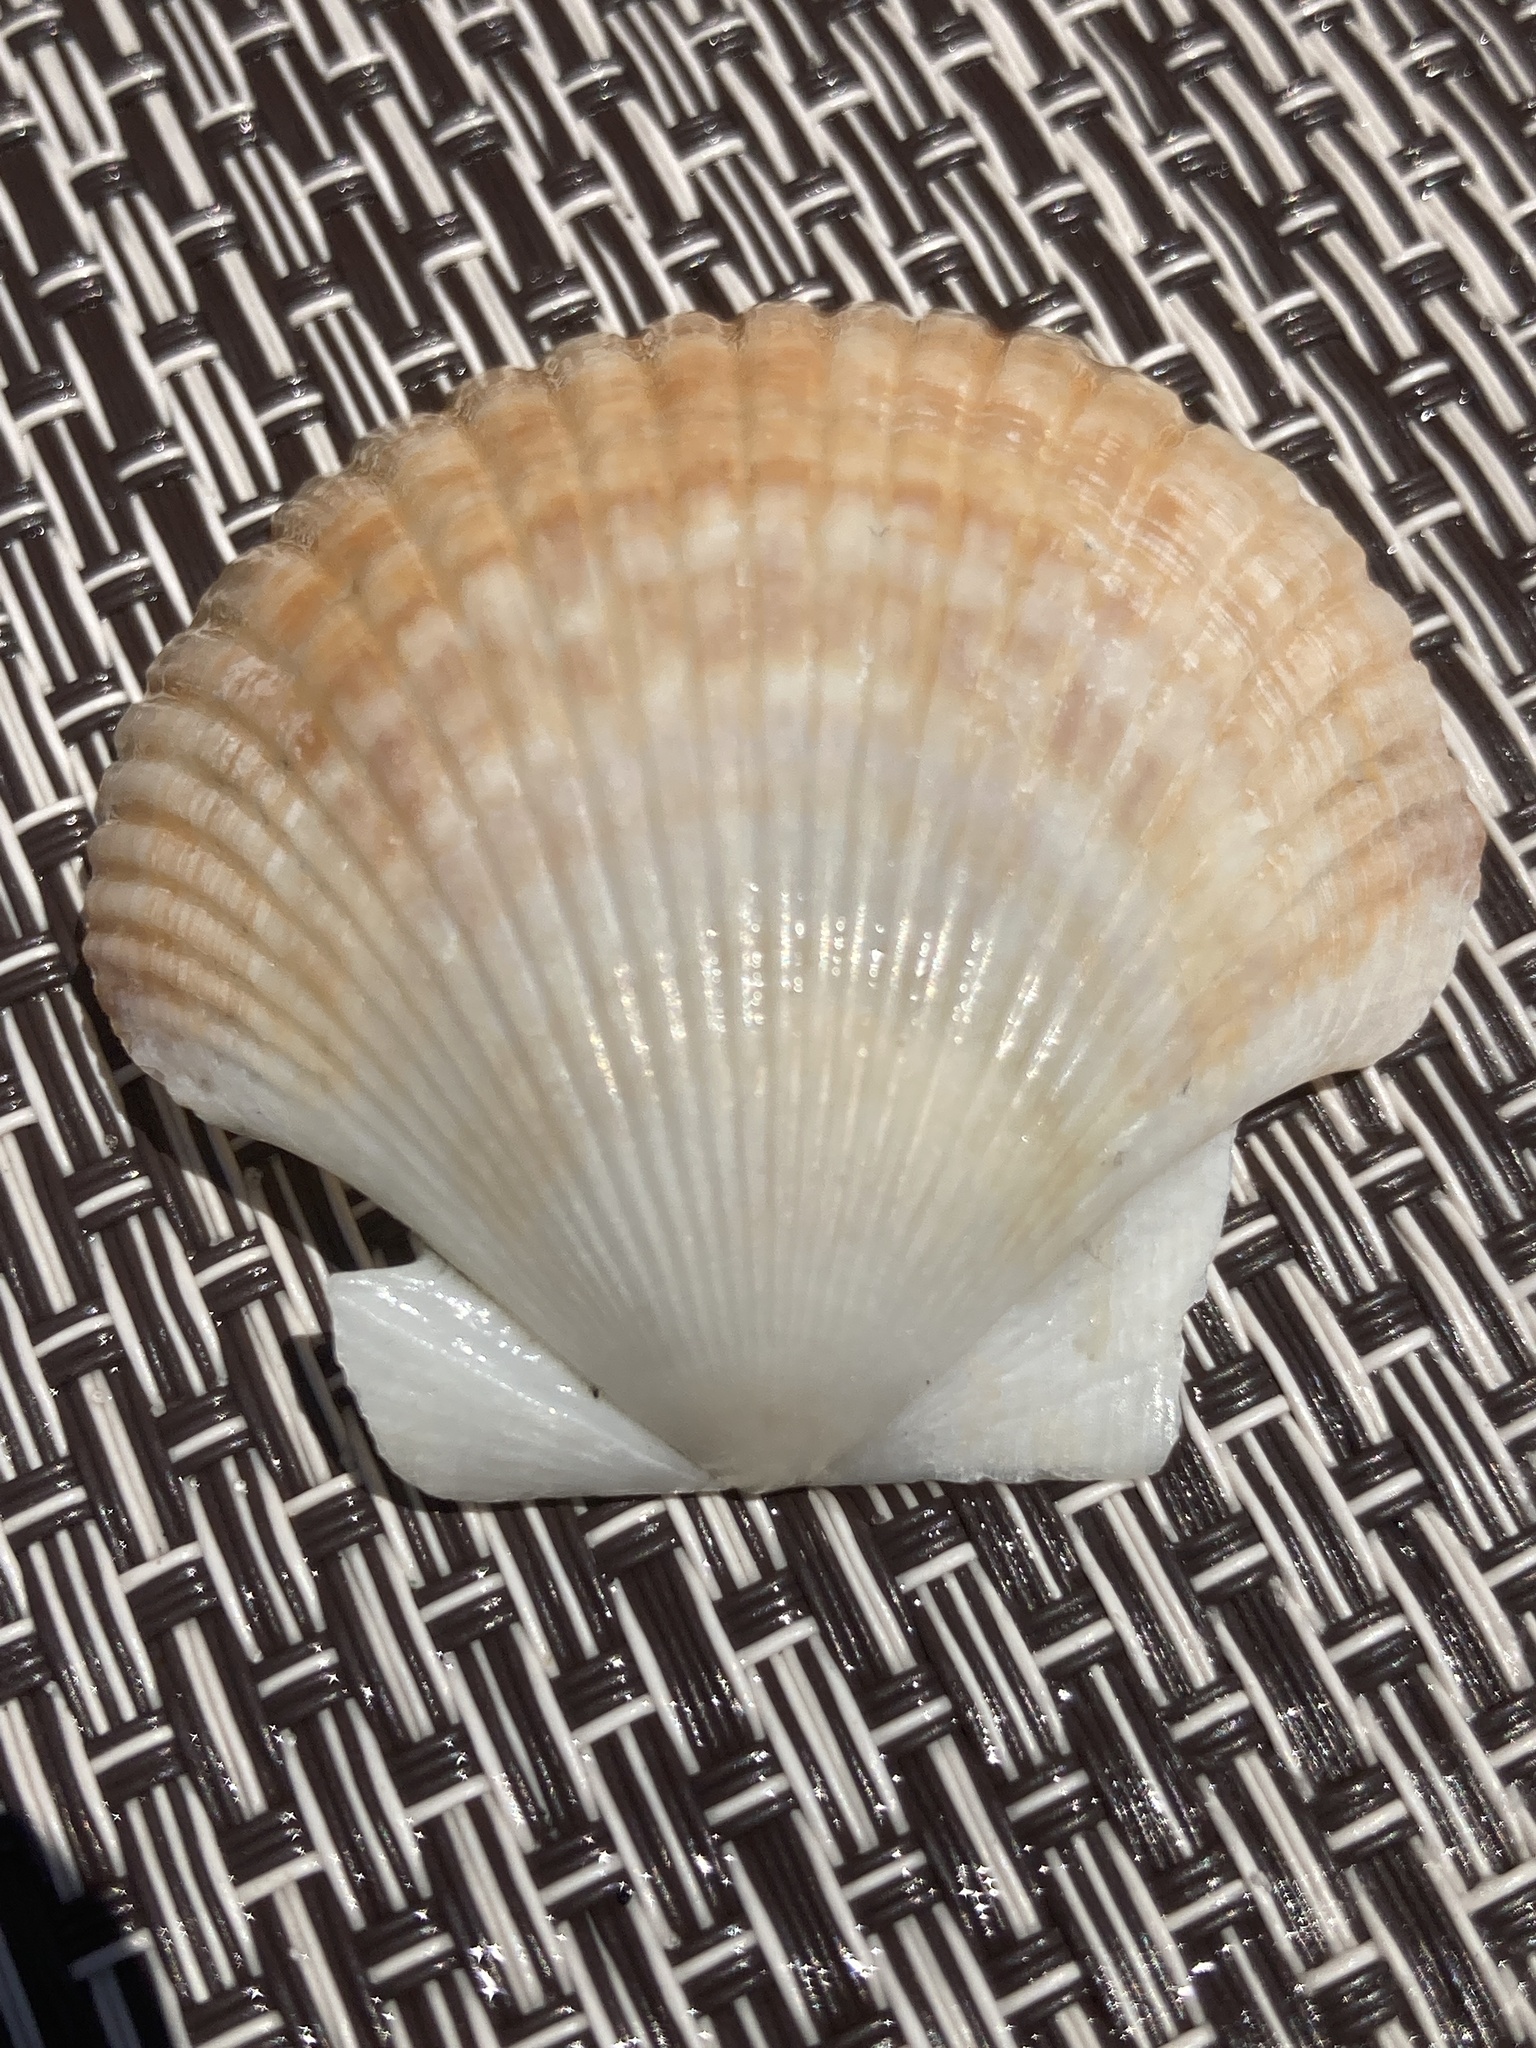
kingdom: Animalia
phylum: Mollusca
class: Bivalvia
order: Pectinida
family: Pectinidae
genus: Euvola
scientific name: Euvola raveneli
